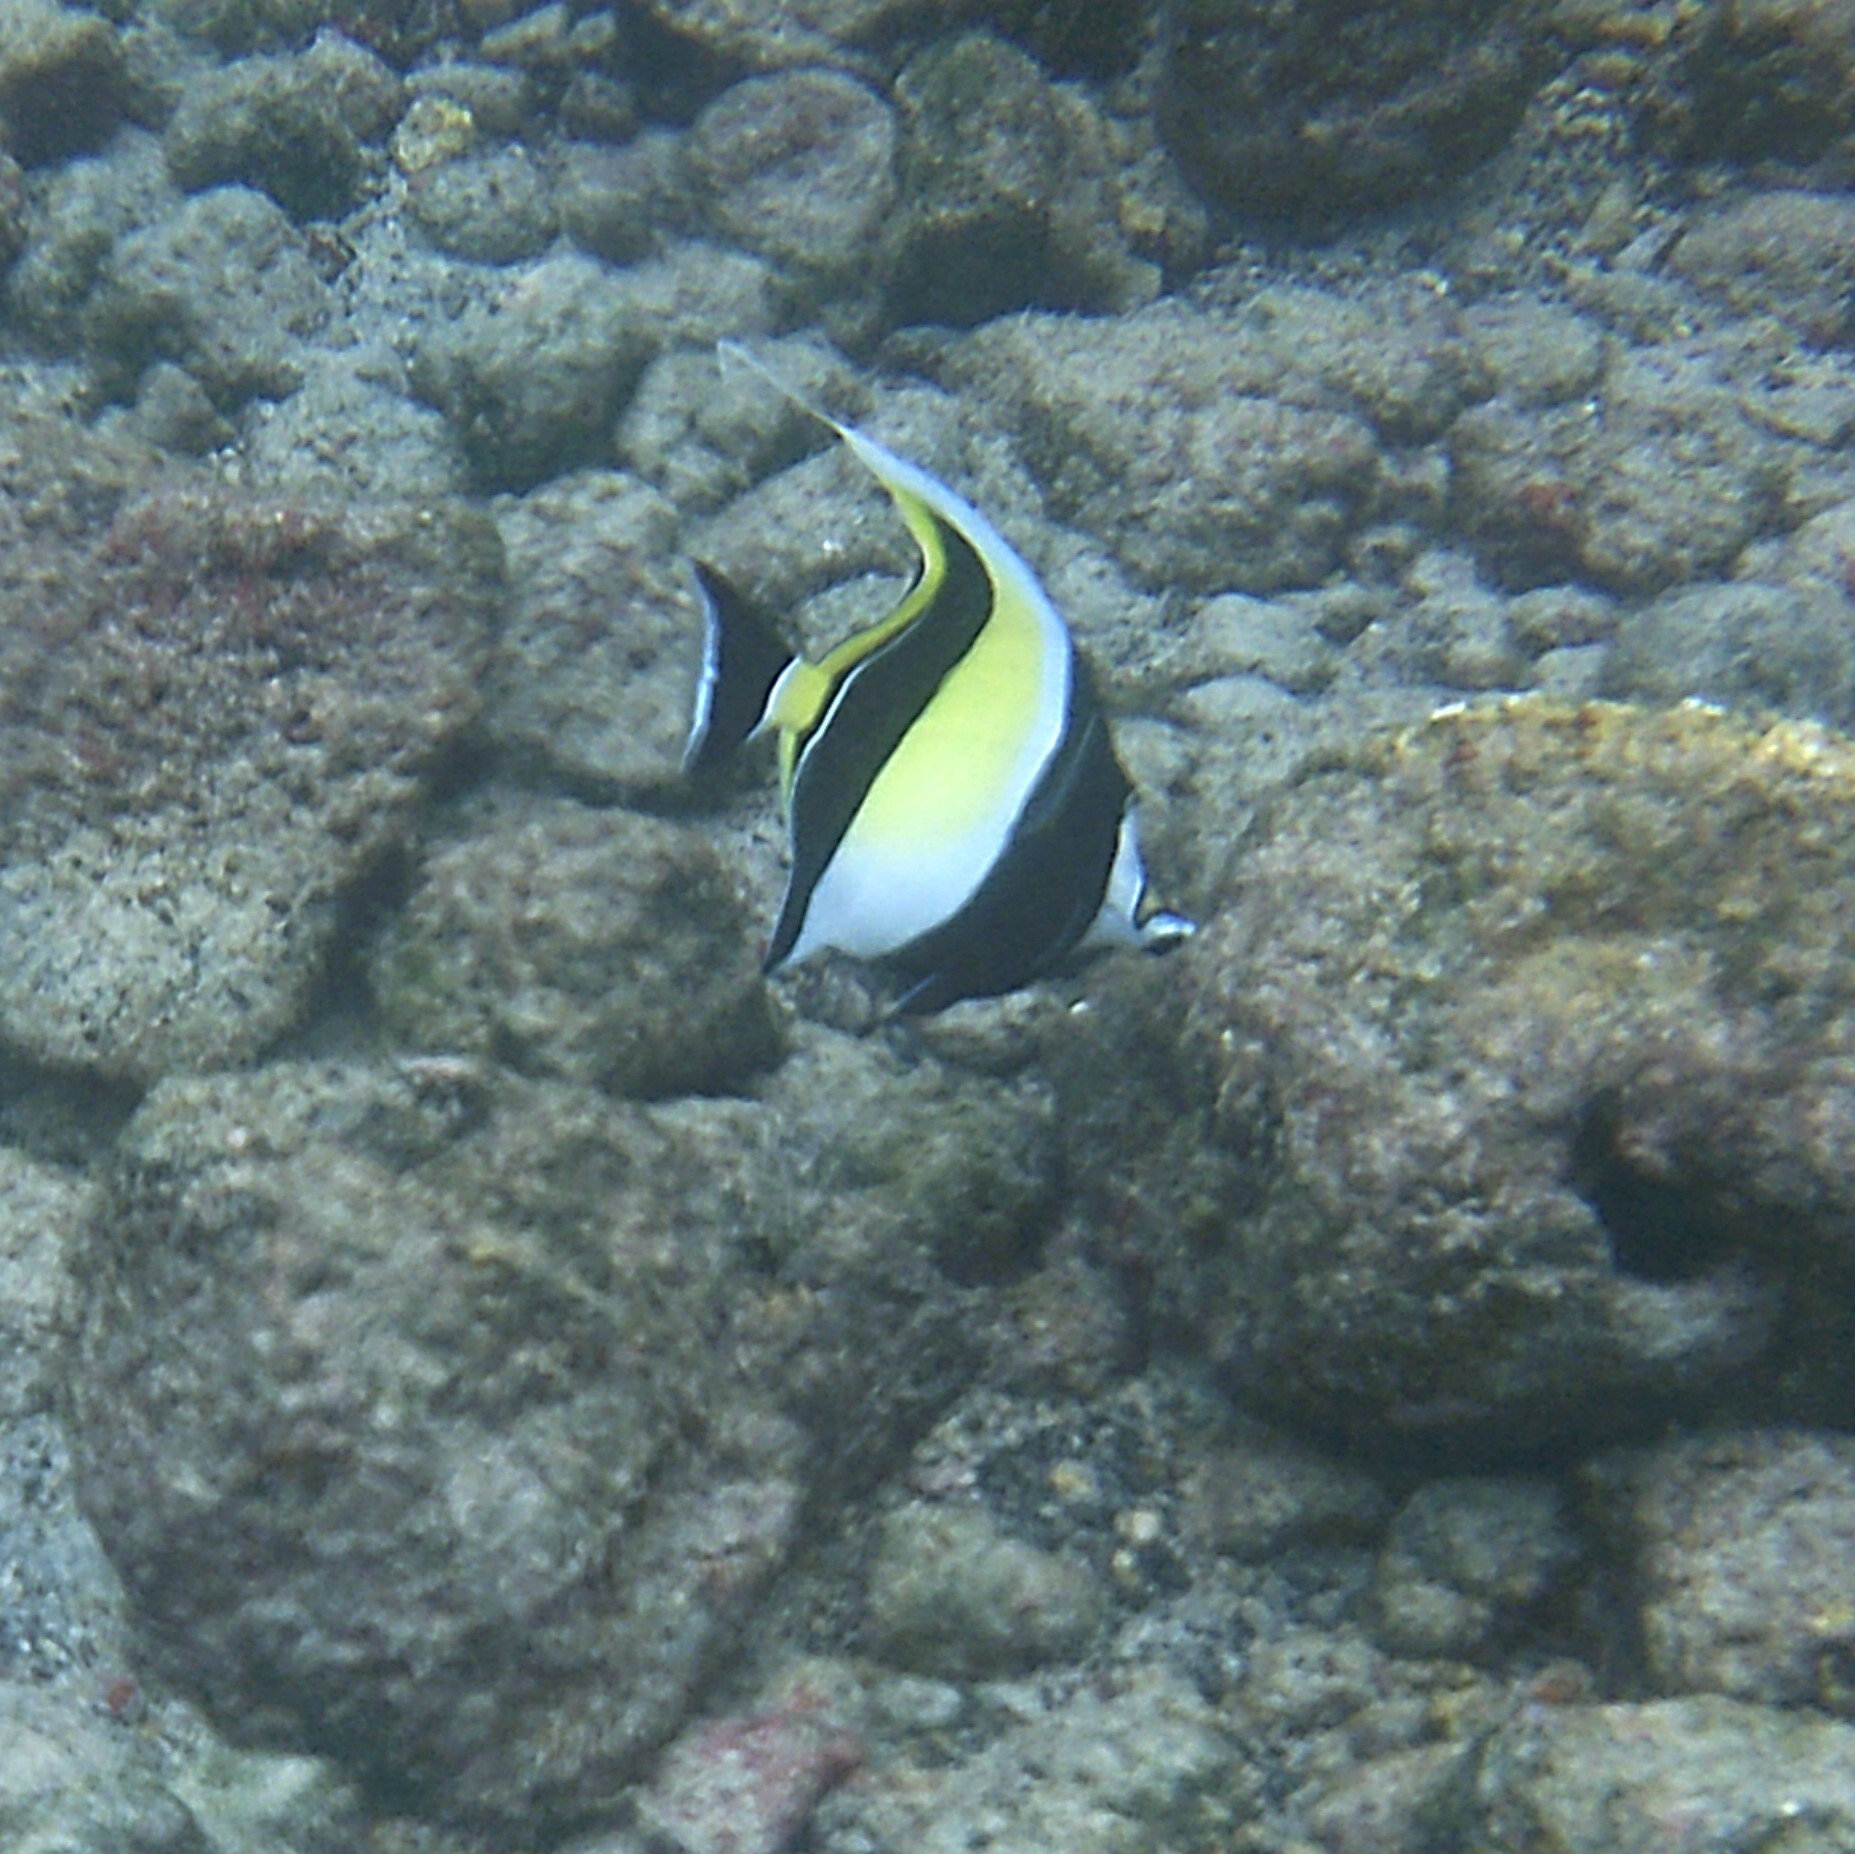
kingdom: Animalia
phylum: Chordata
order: Perciformes
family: Zanclidae
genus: Zanclus
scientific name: Zanclus cornutus
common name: Moorish idol
